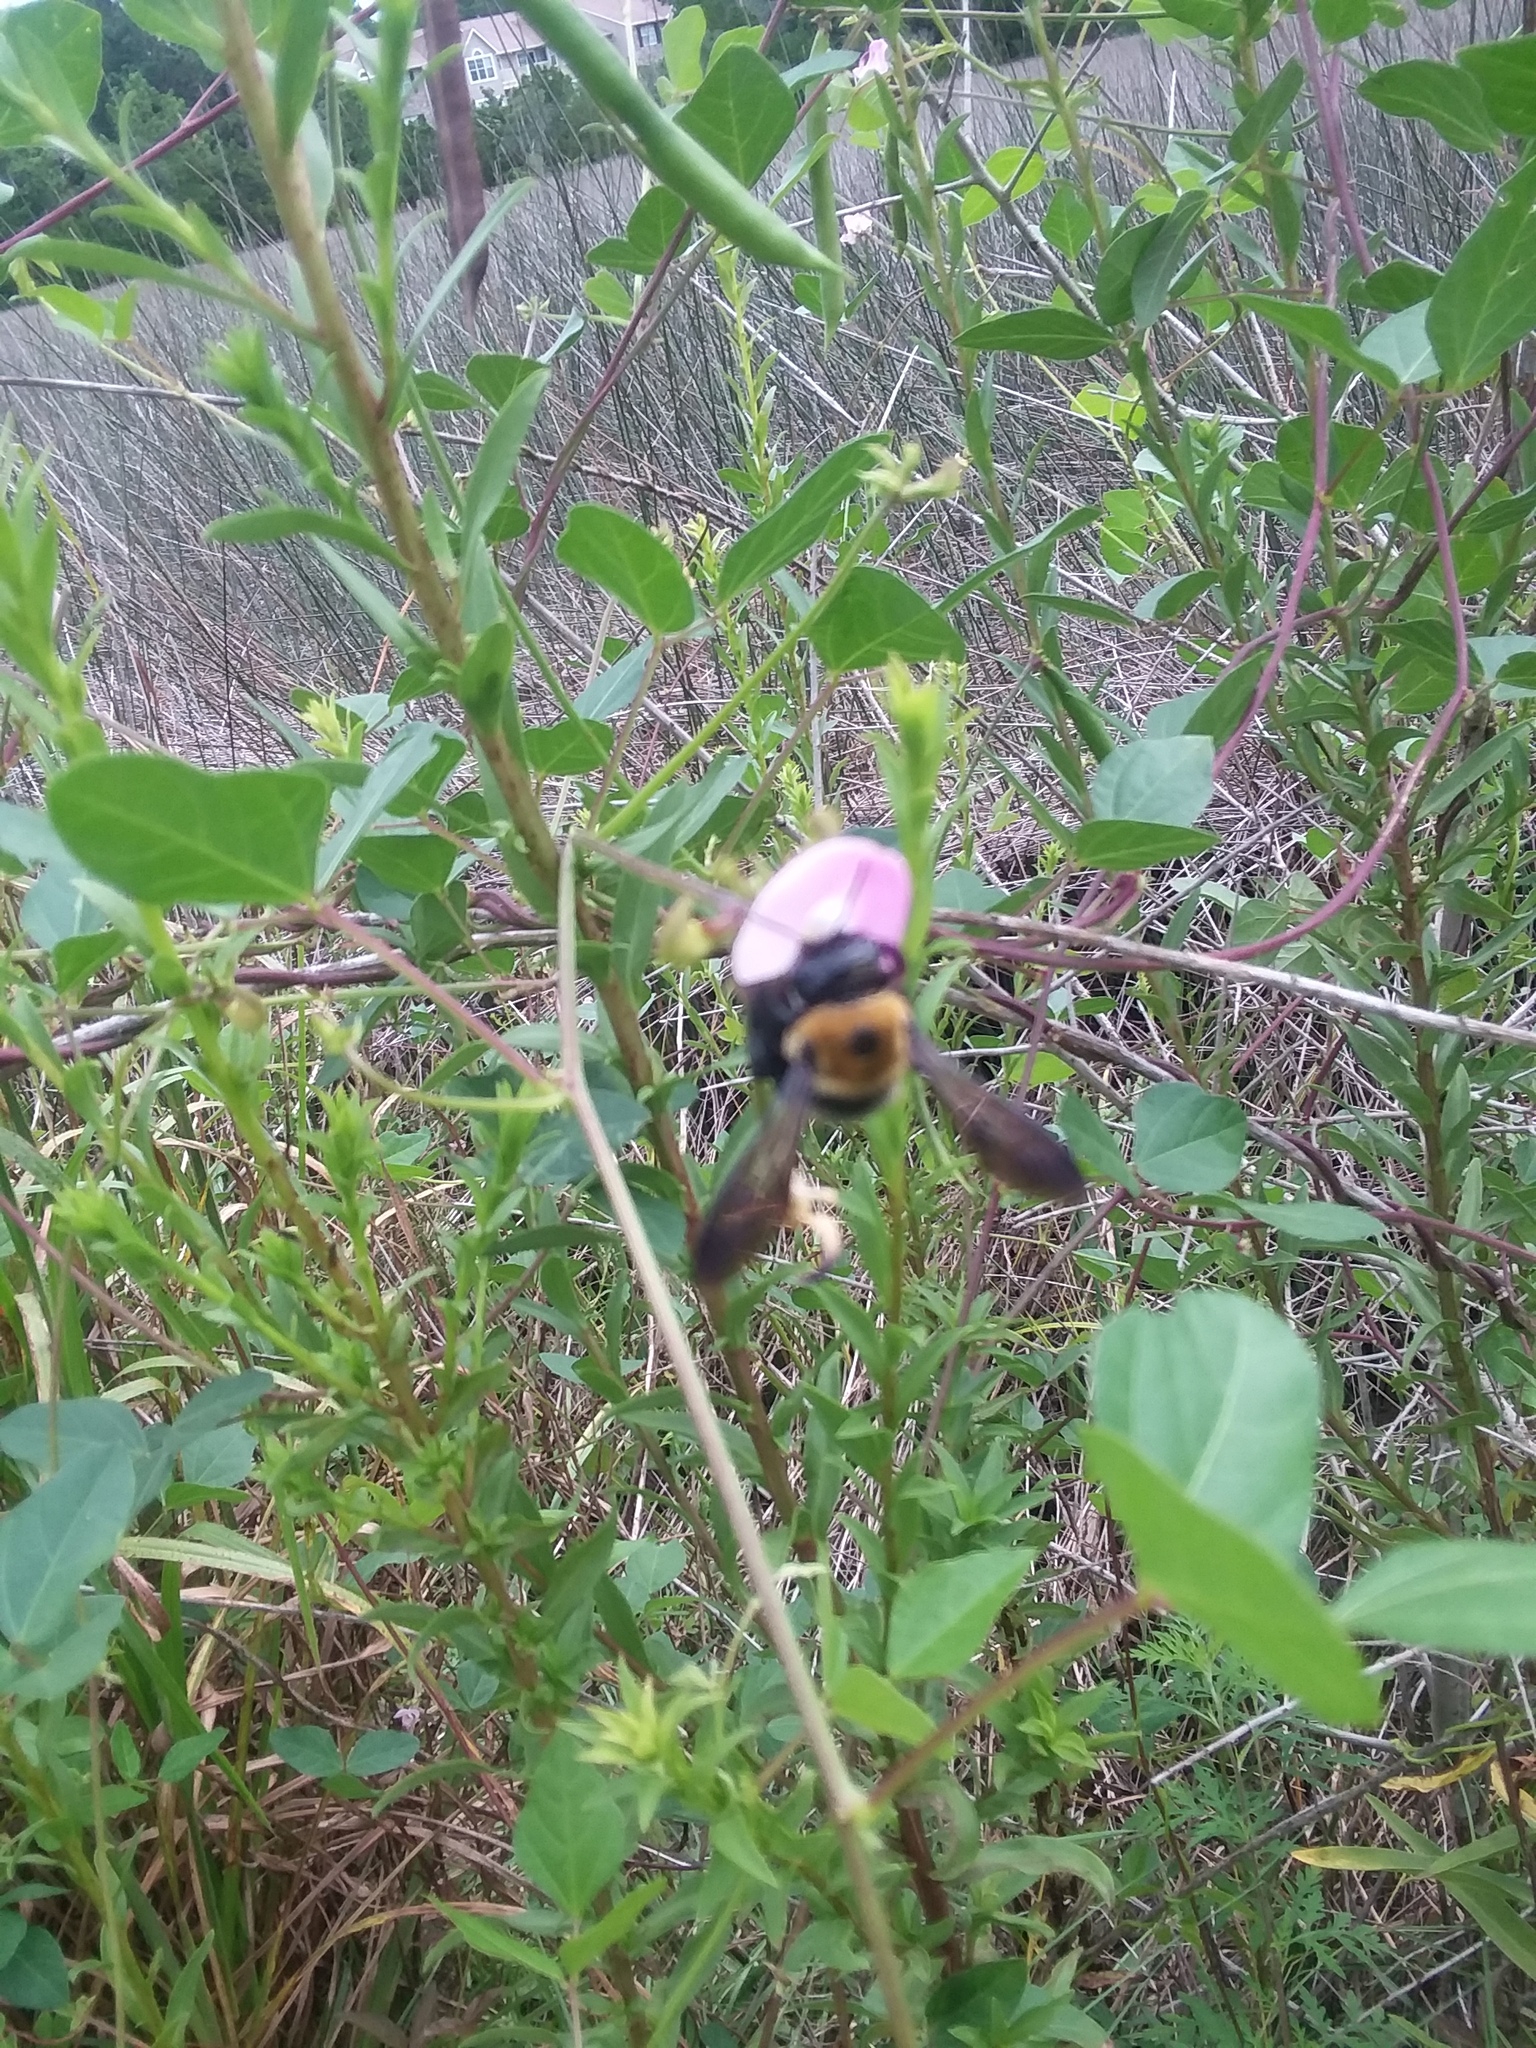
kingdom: Animalia
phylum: Arthropoda
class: Insecta
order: Hymenoptera
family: Apidae
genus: Xylocopa
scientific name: Xylocopa virginica
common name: Carpenter bee
